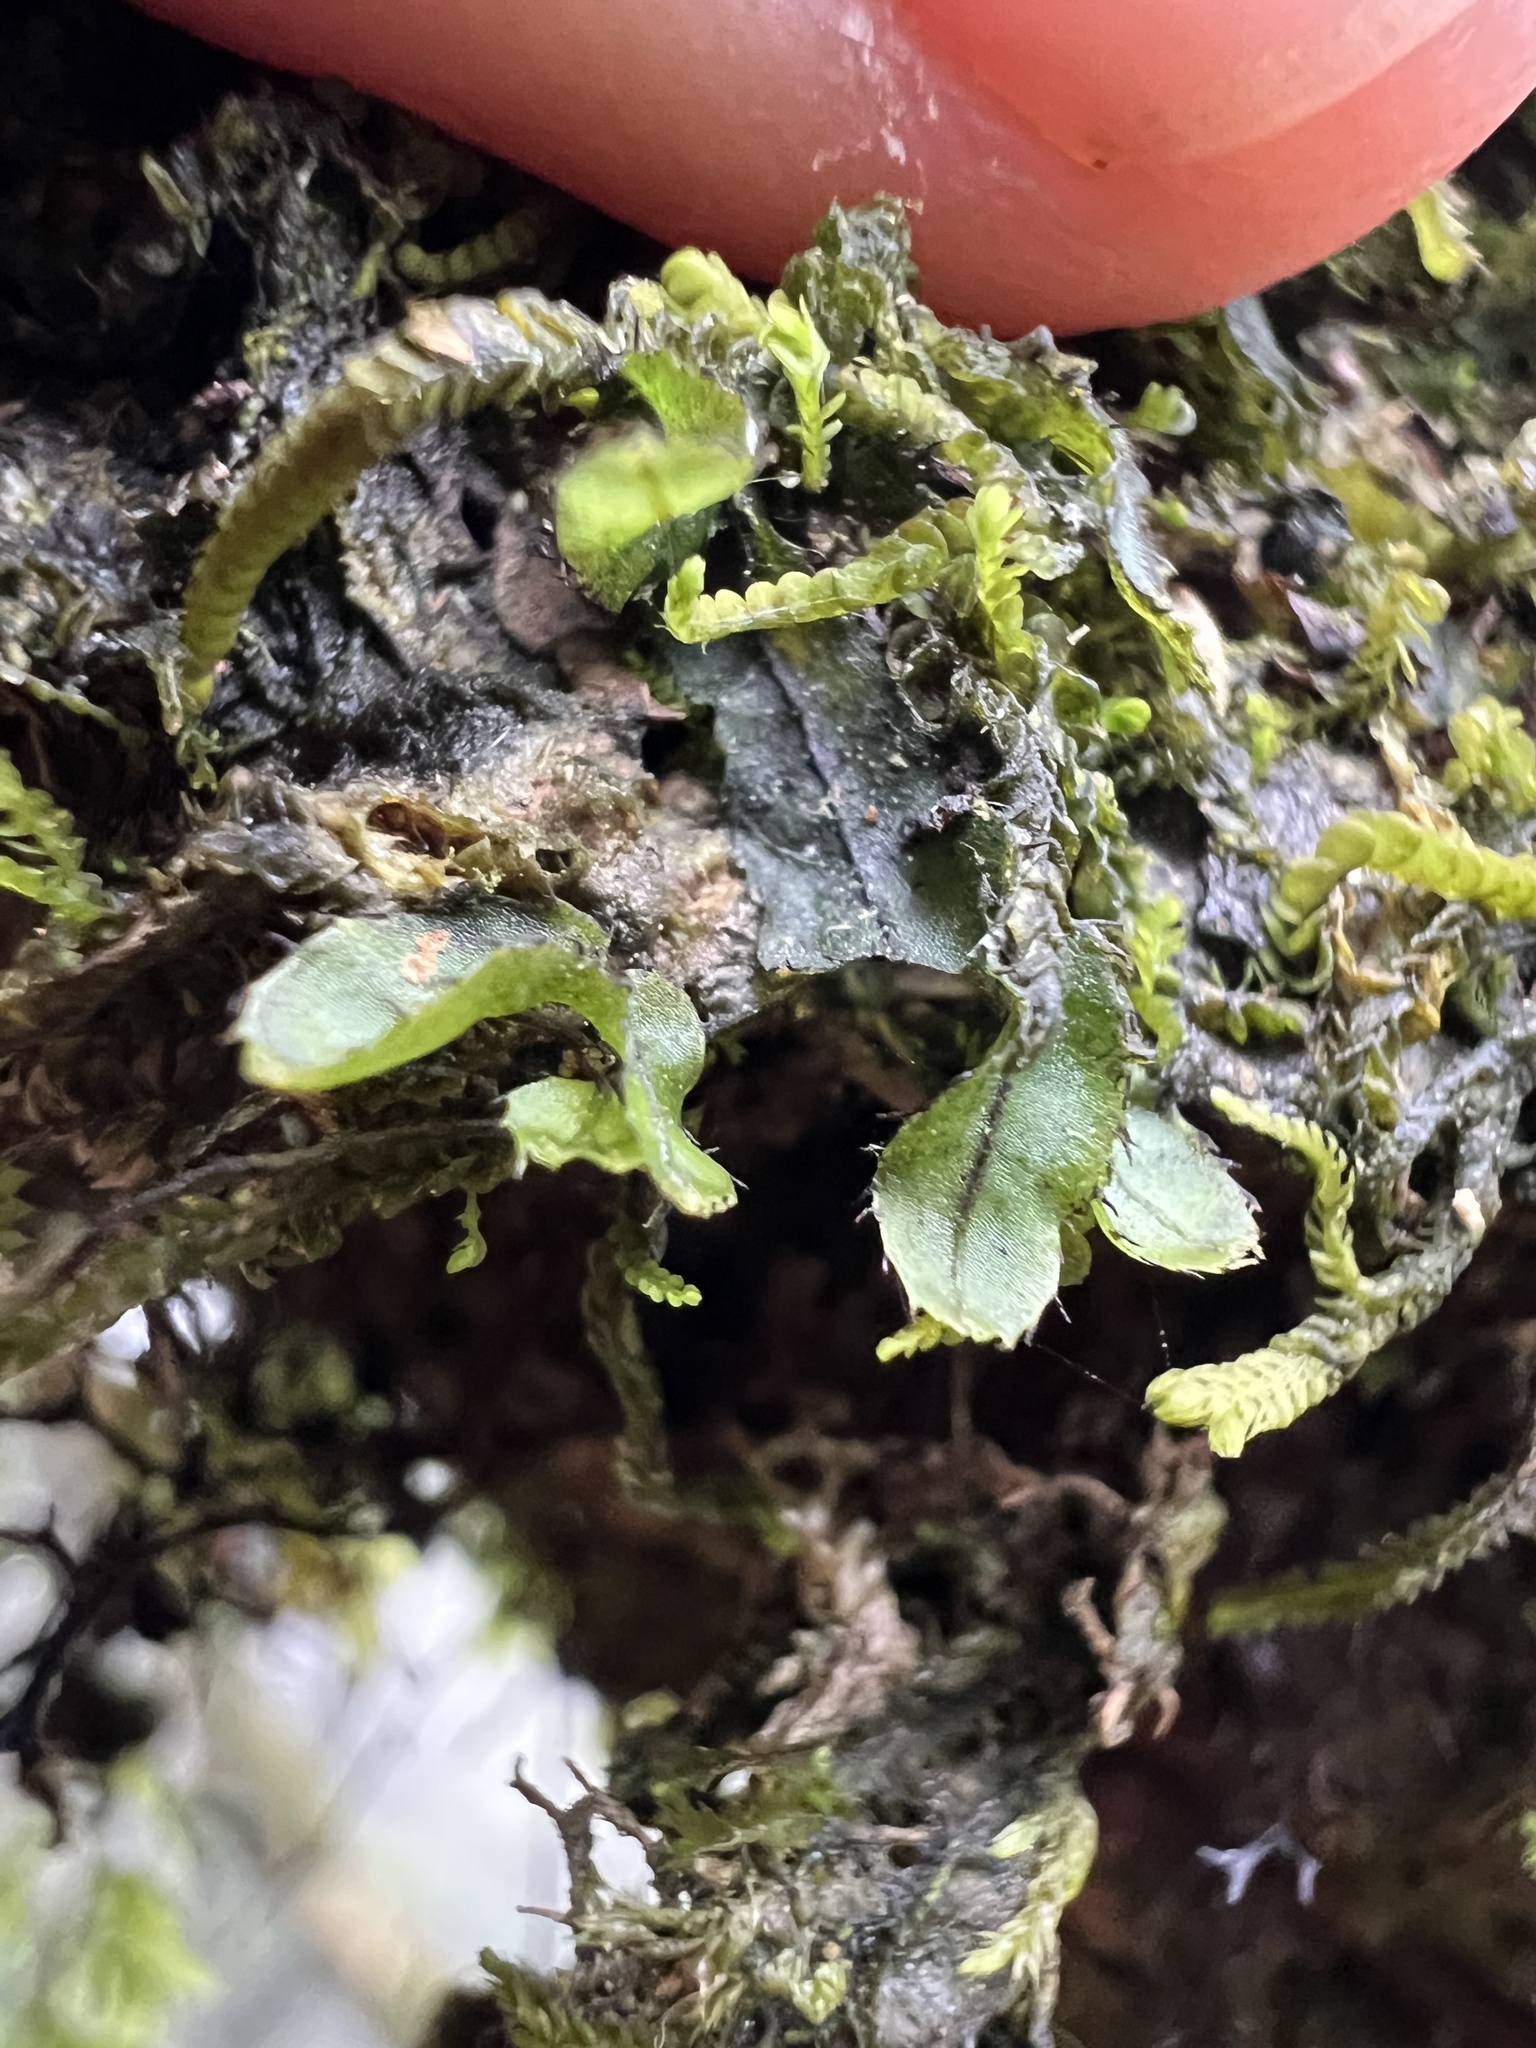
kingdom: Plantae
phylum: Tracheophyta
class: Polypodiopsida
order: Hymenophyllales
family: Hymenophyllaceae
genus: Hymenophyllum
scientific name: Hymenophyllum armstrongii
